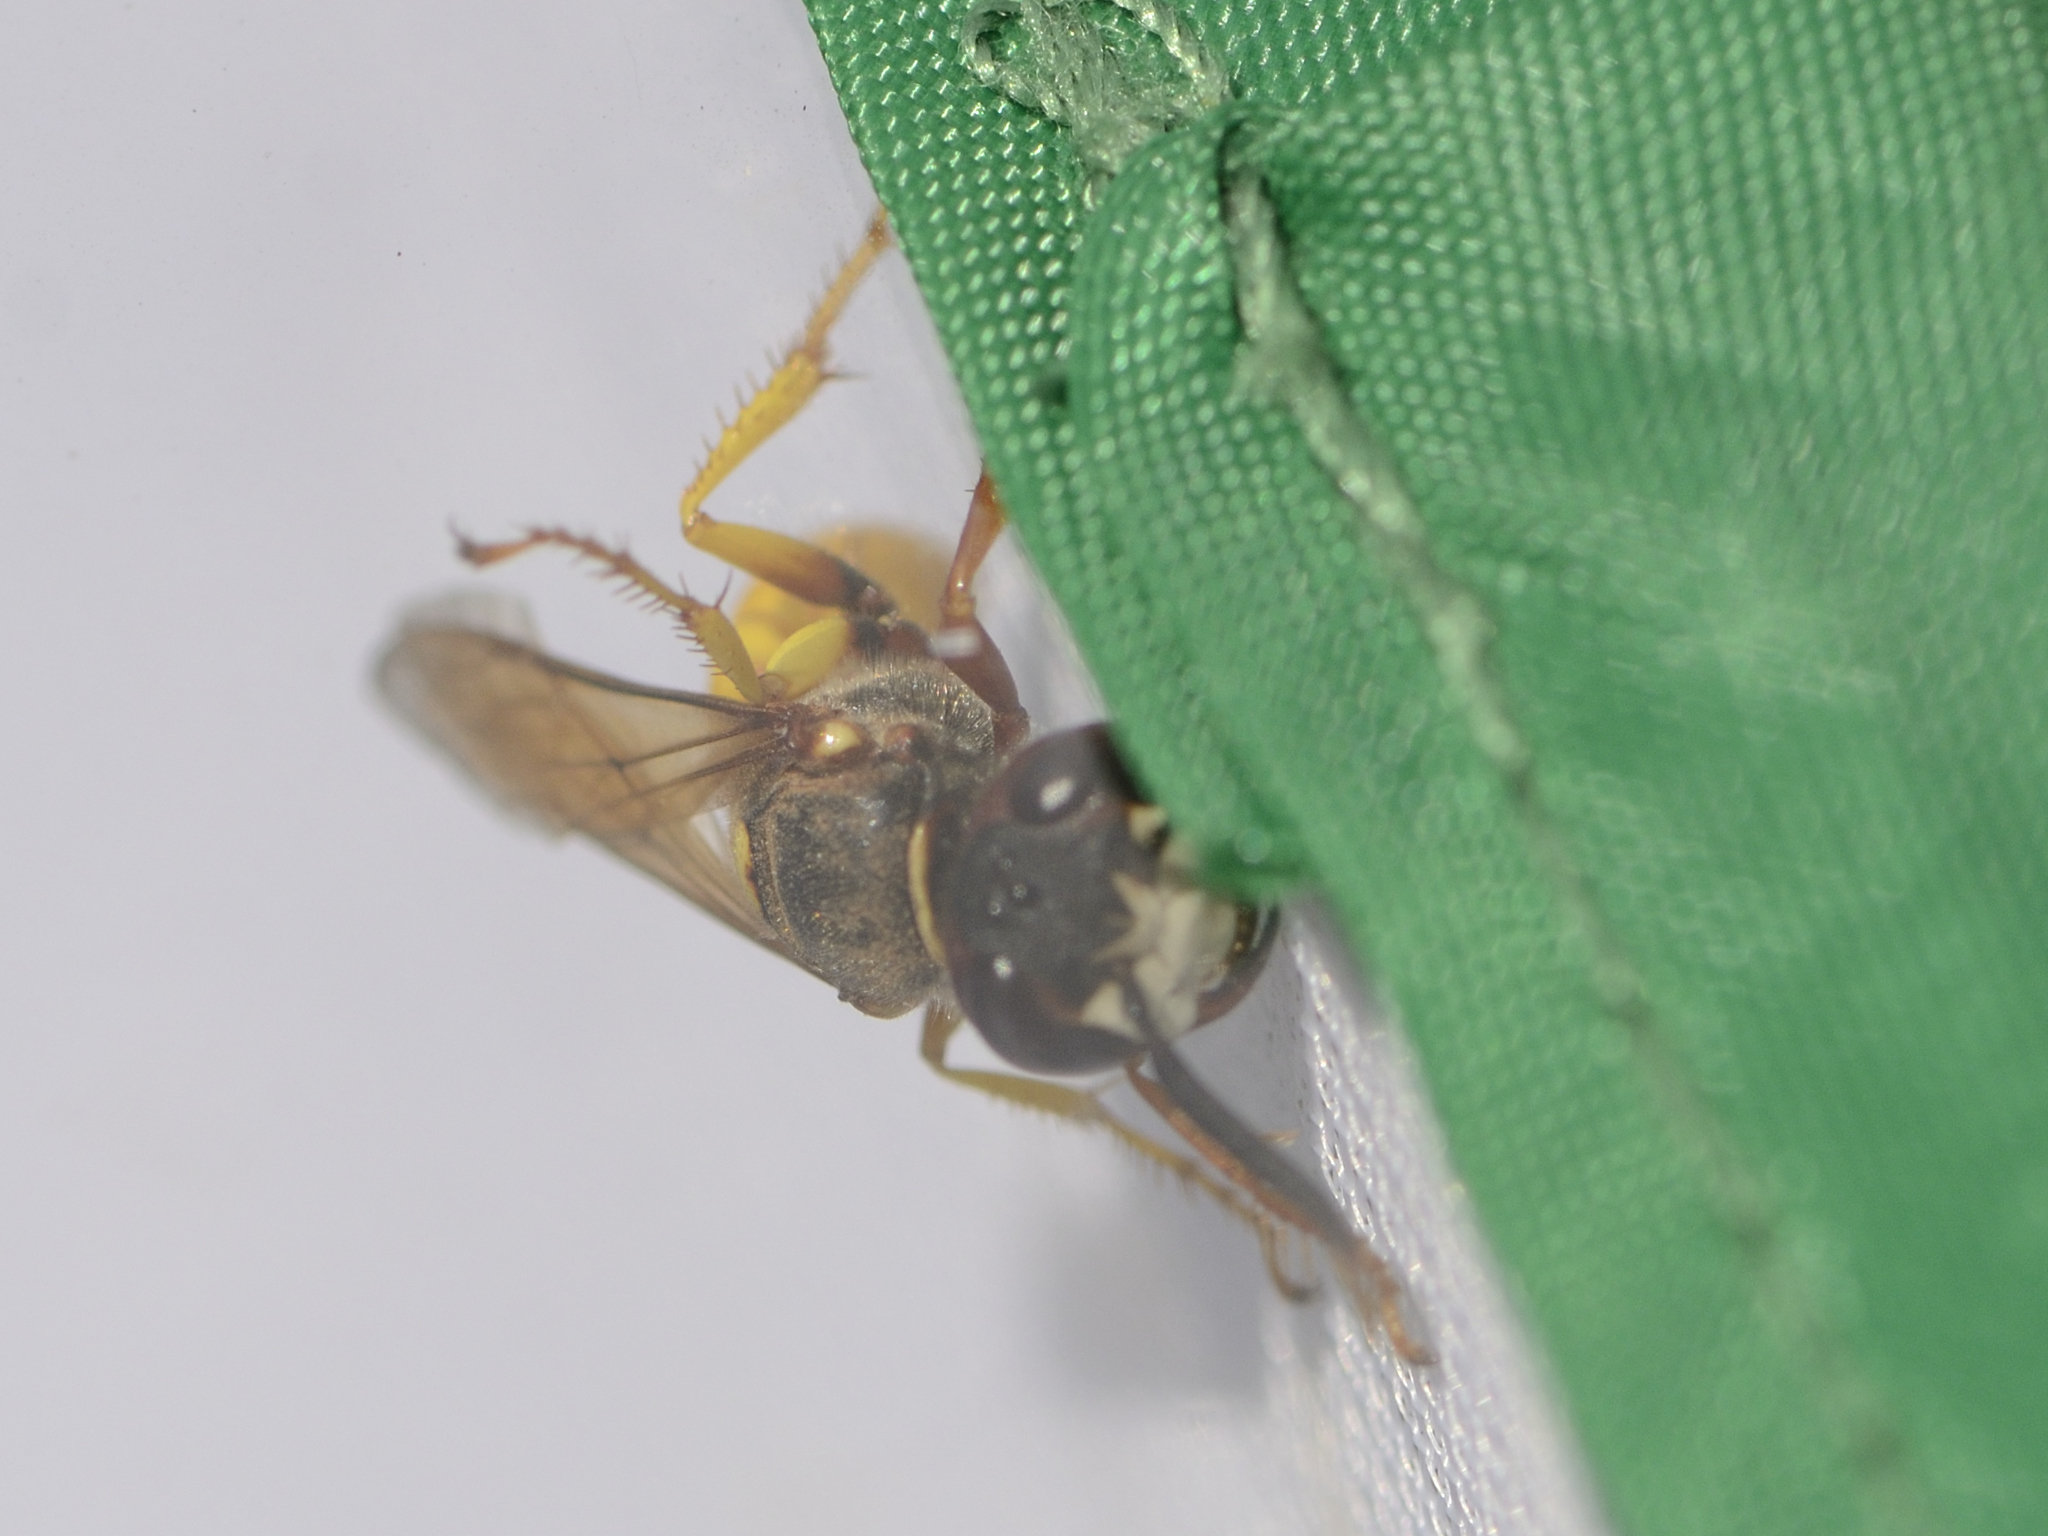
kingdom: Animalia
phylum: Arthropoda
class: Insecta
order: Hymenoptera
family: Crabronidae
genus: Philanthus
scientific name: Philanthus triangulum
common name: Bee wolf
